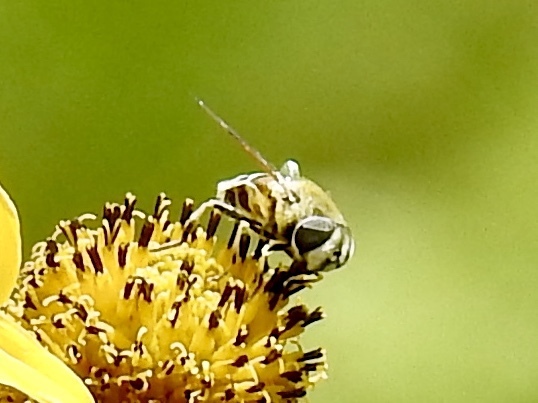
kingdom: Animalia
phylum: Arthropoda
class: Insecta
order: Diptera
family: Syrphidae
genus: Eristalis
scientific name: Eristalis stipator
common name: Yellow-shouldered drone fly
